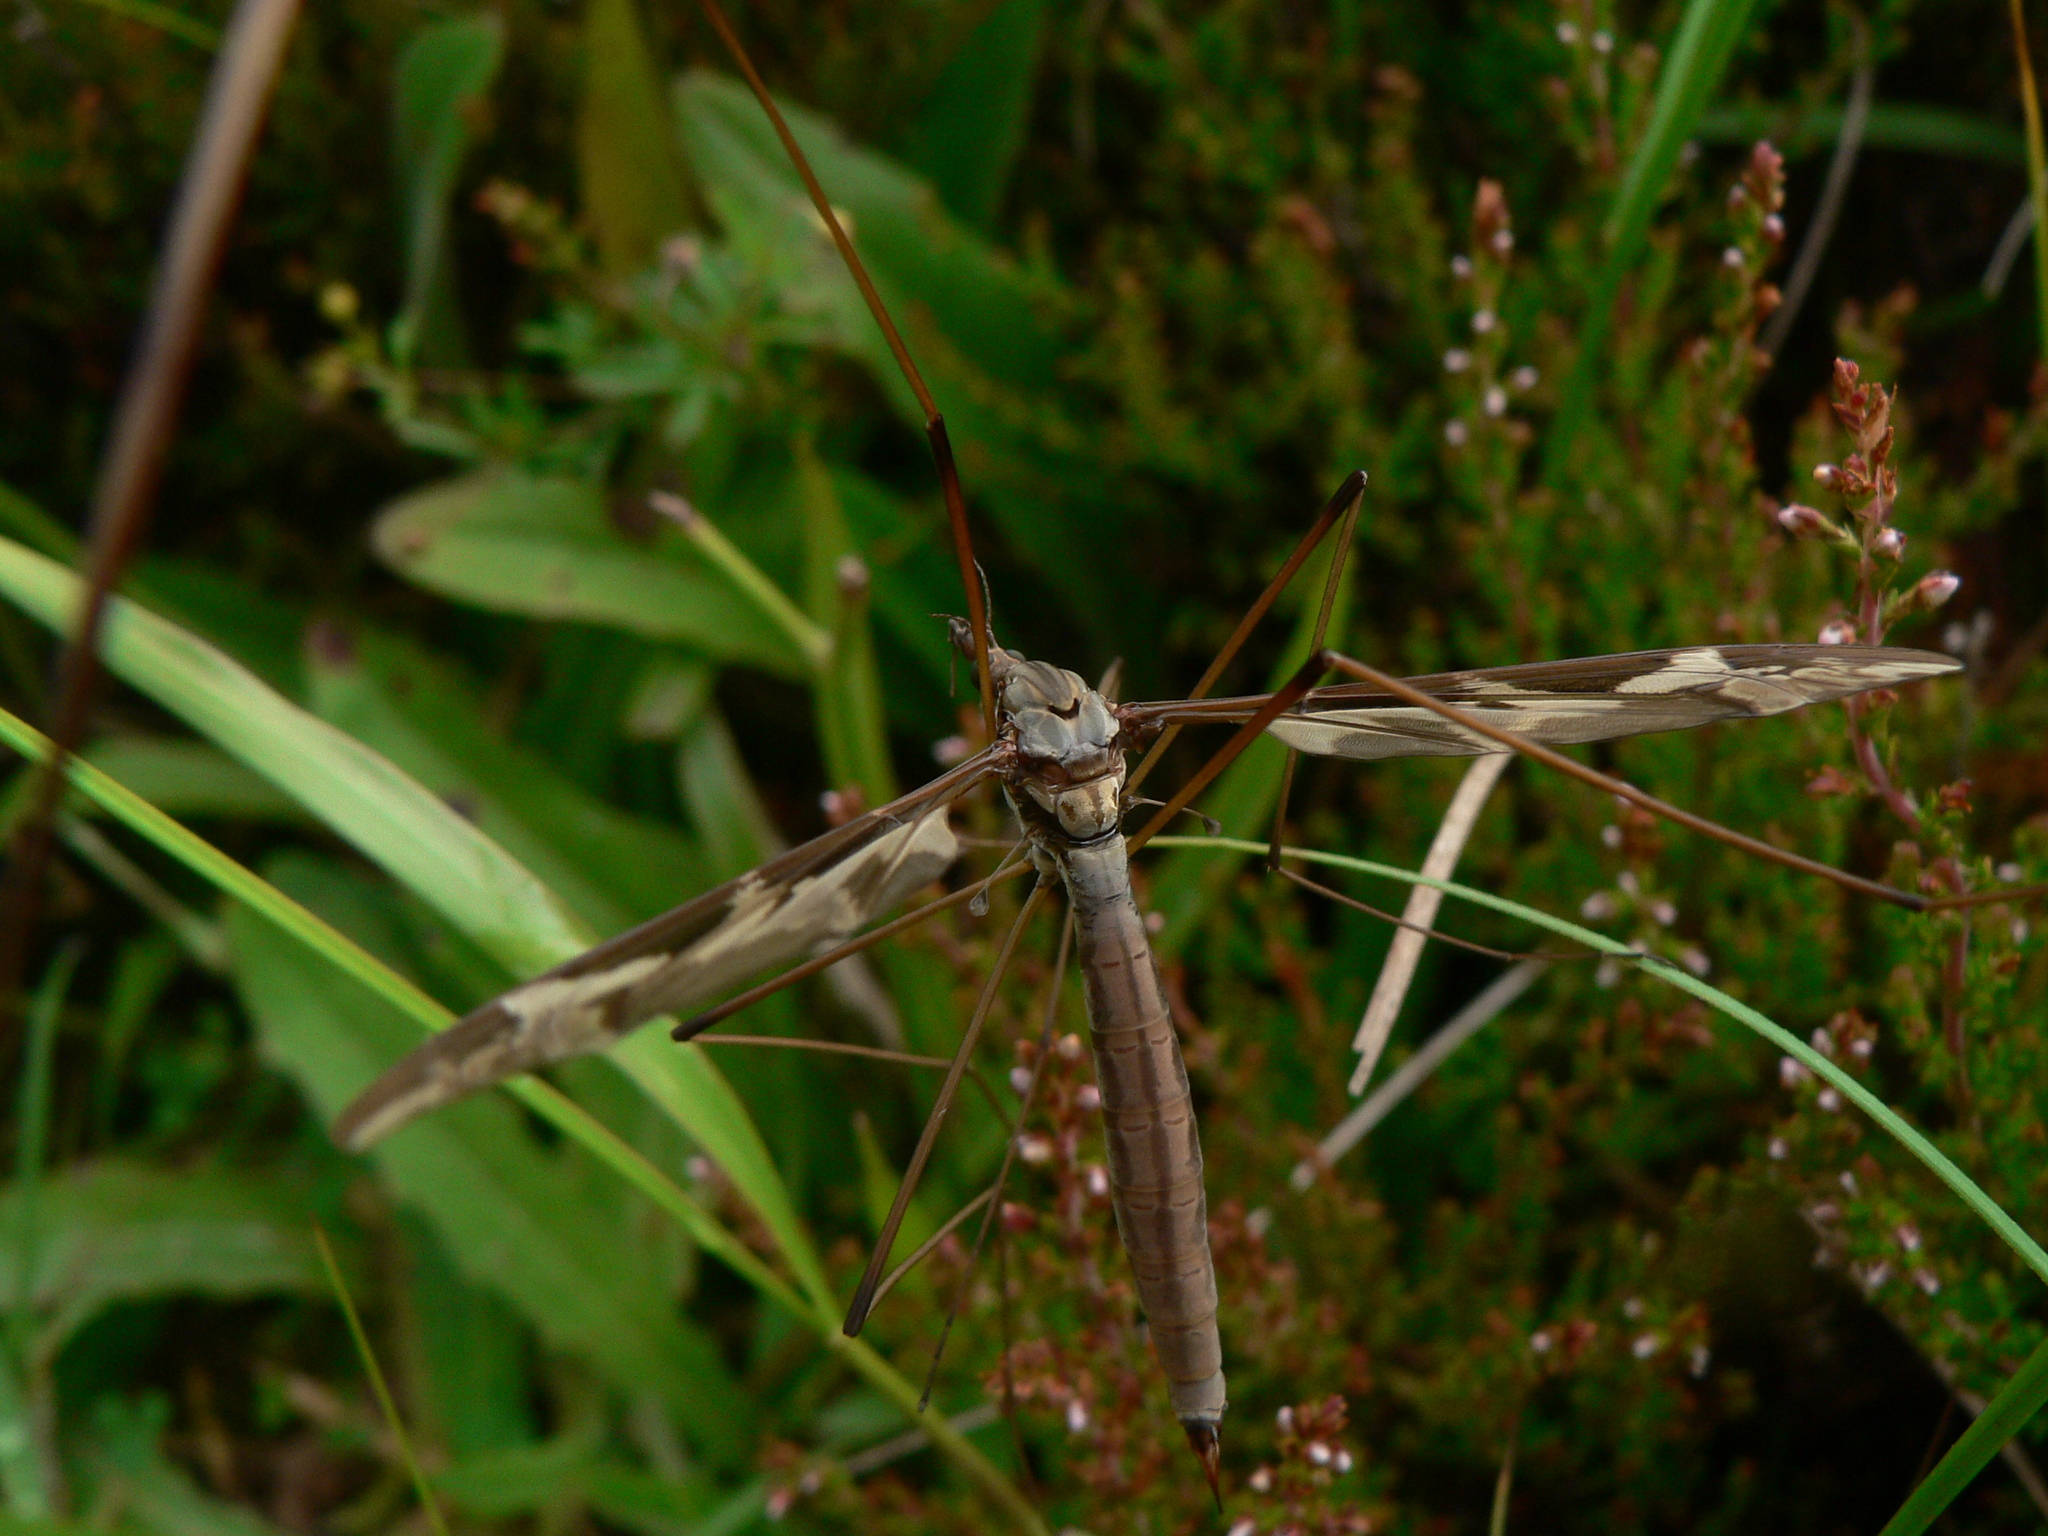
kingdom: Animalia
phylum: Arthropoda
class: Insecta
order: Diptera
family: Tipulidae
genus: Tipula
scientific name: Tipula maxima
